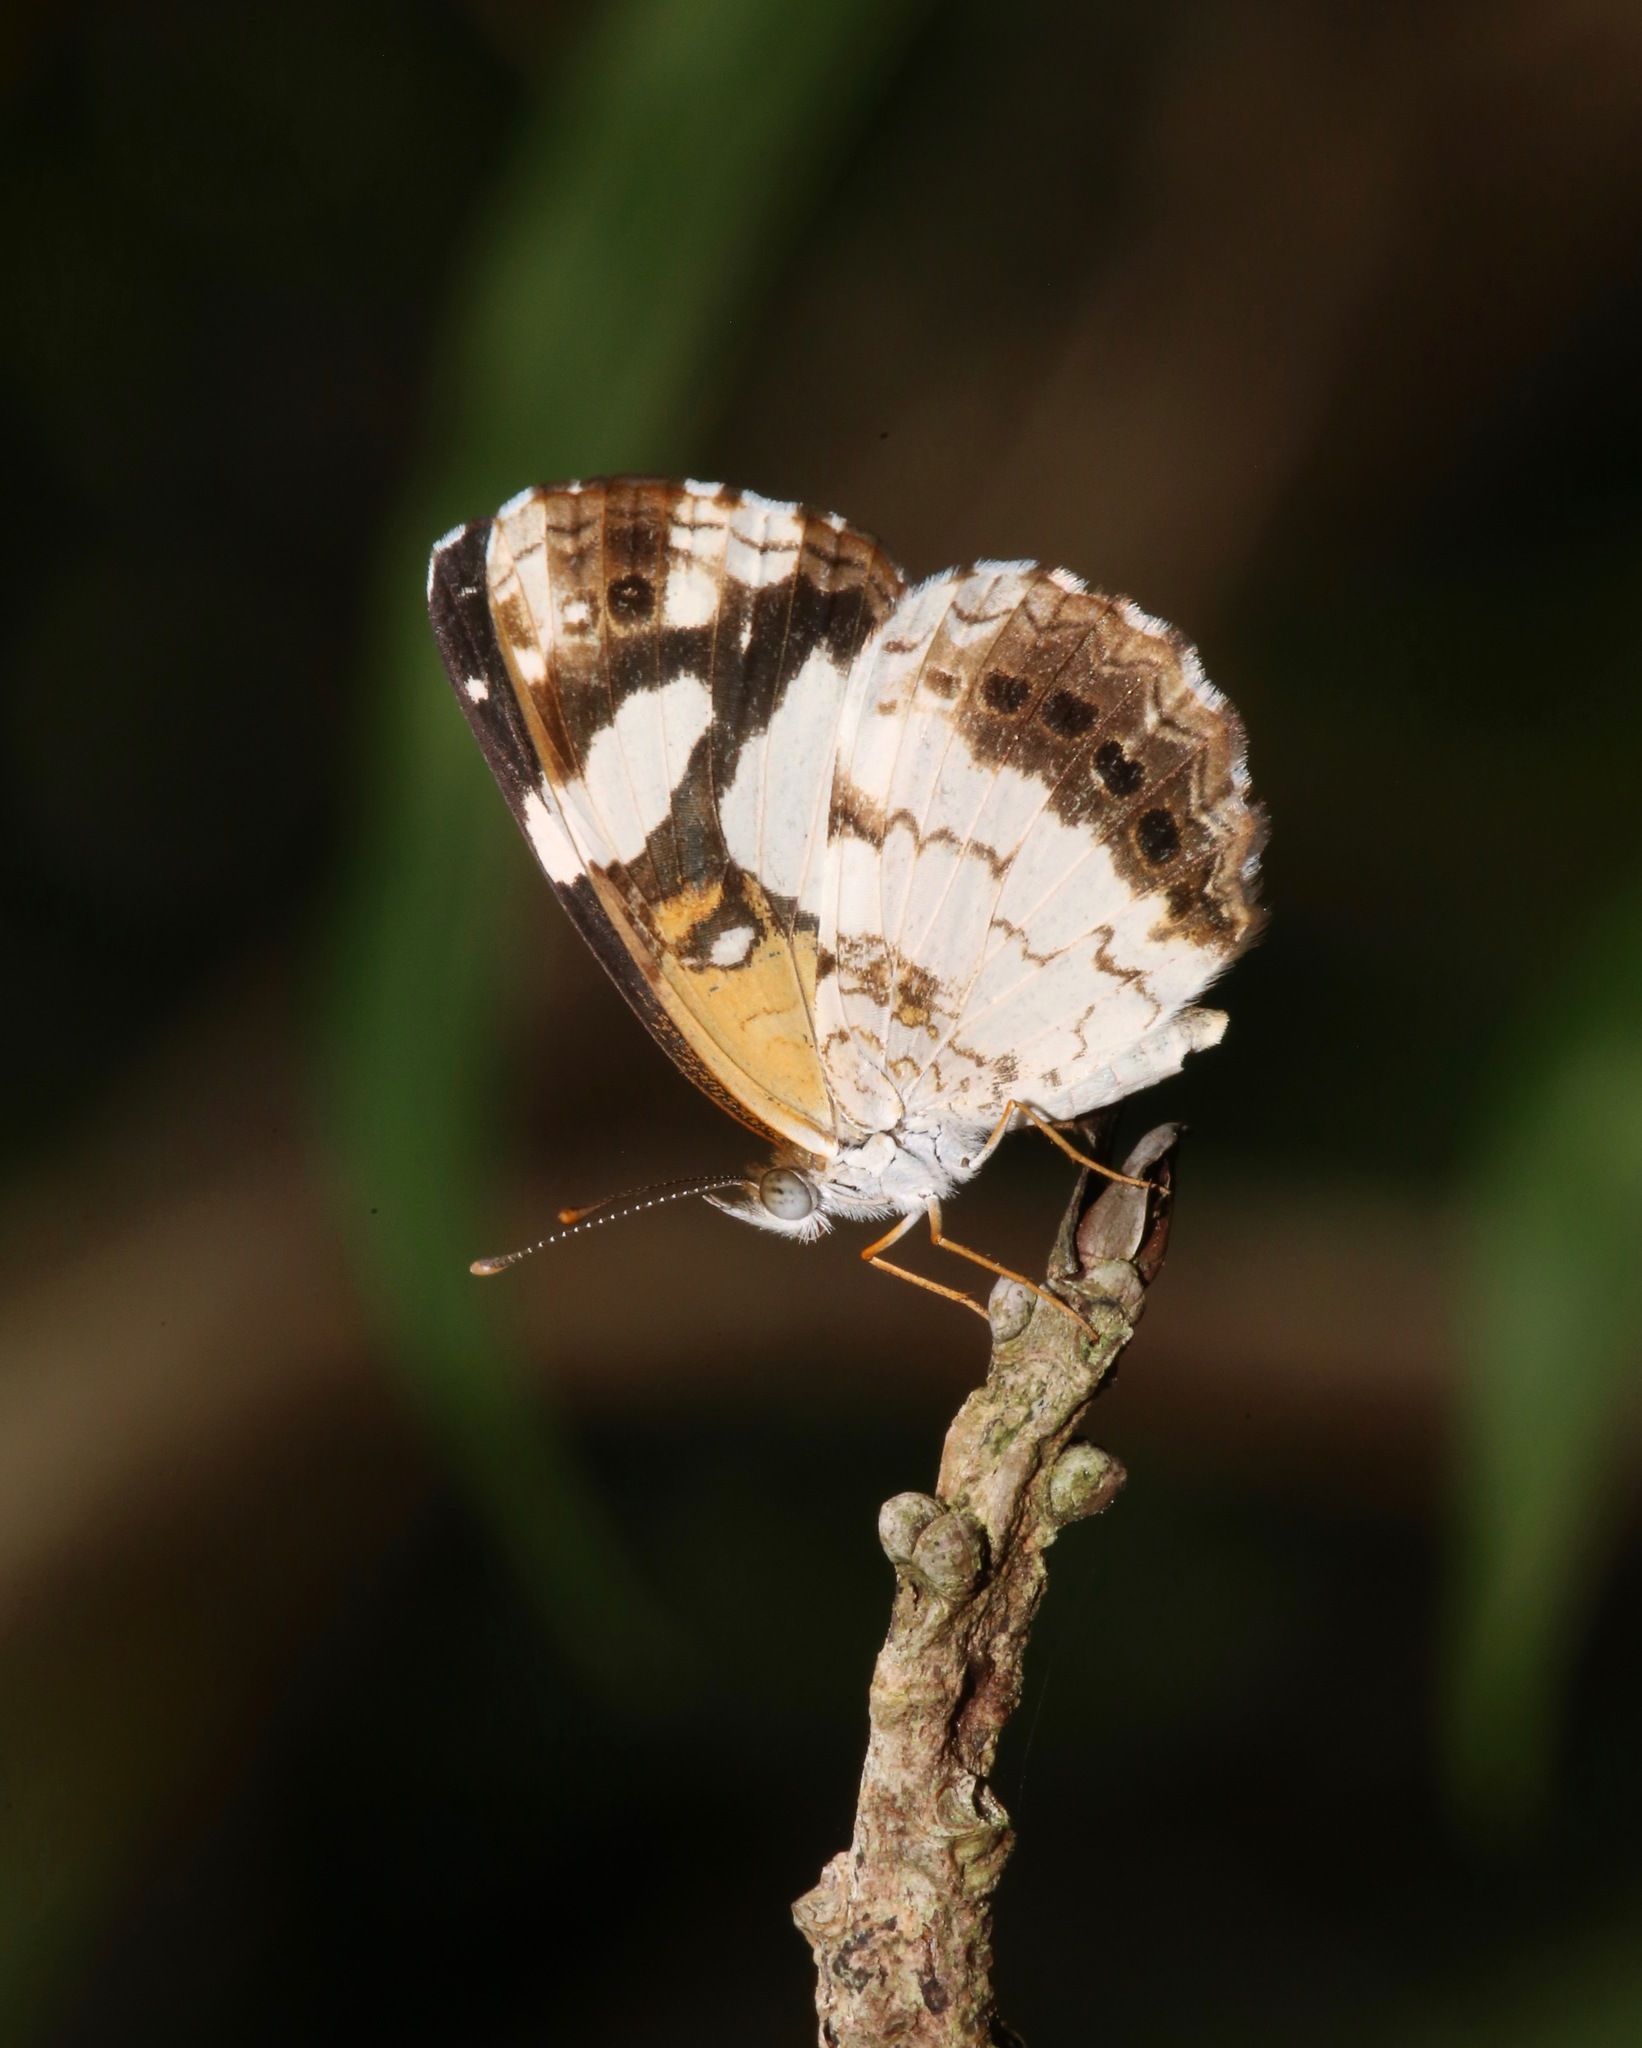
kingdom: Animalia
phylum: Arthropoda
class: Insecta
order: Lepidoptera
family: Nymphalidae
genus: Janatella
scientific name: Janatella leucodesma
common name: Whitened crescent
